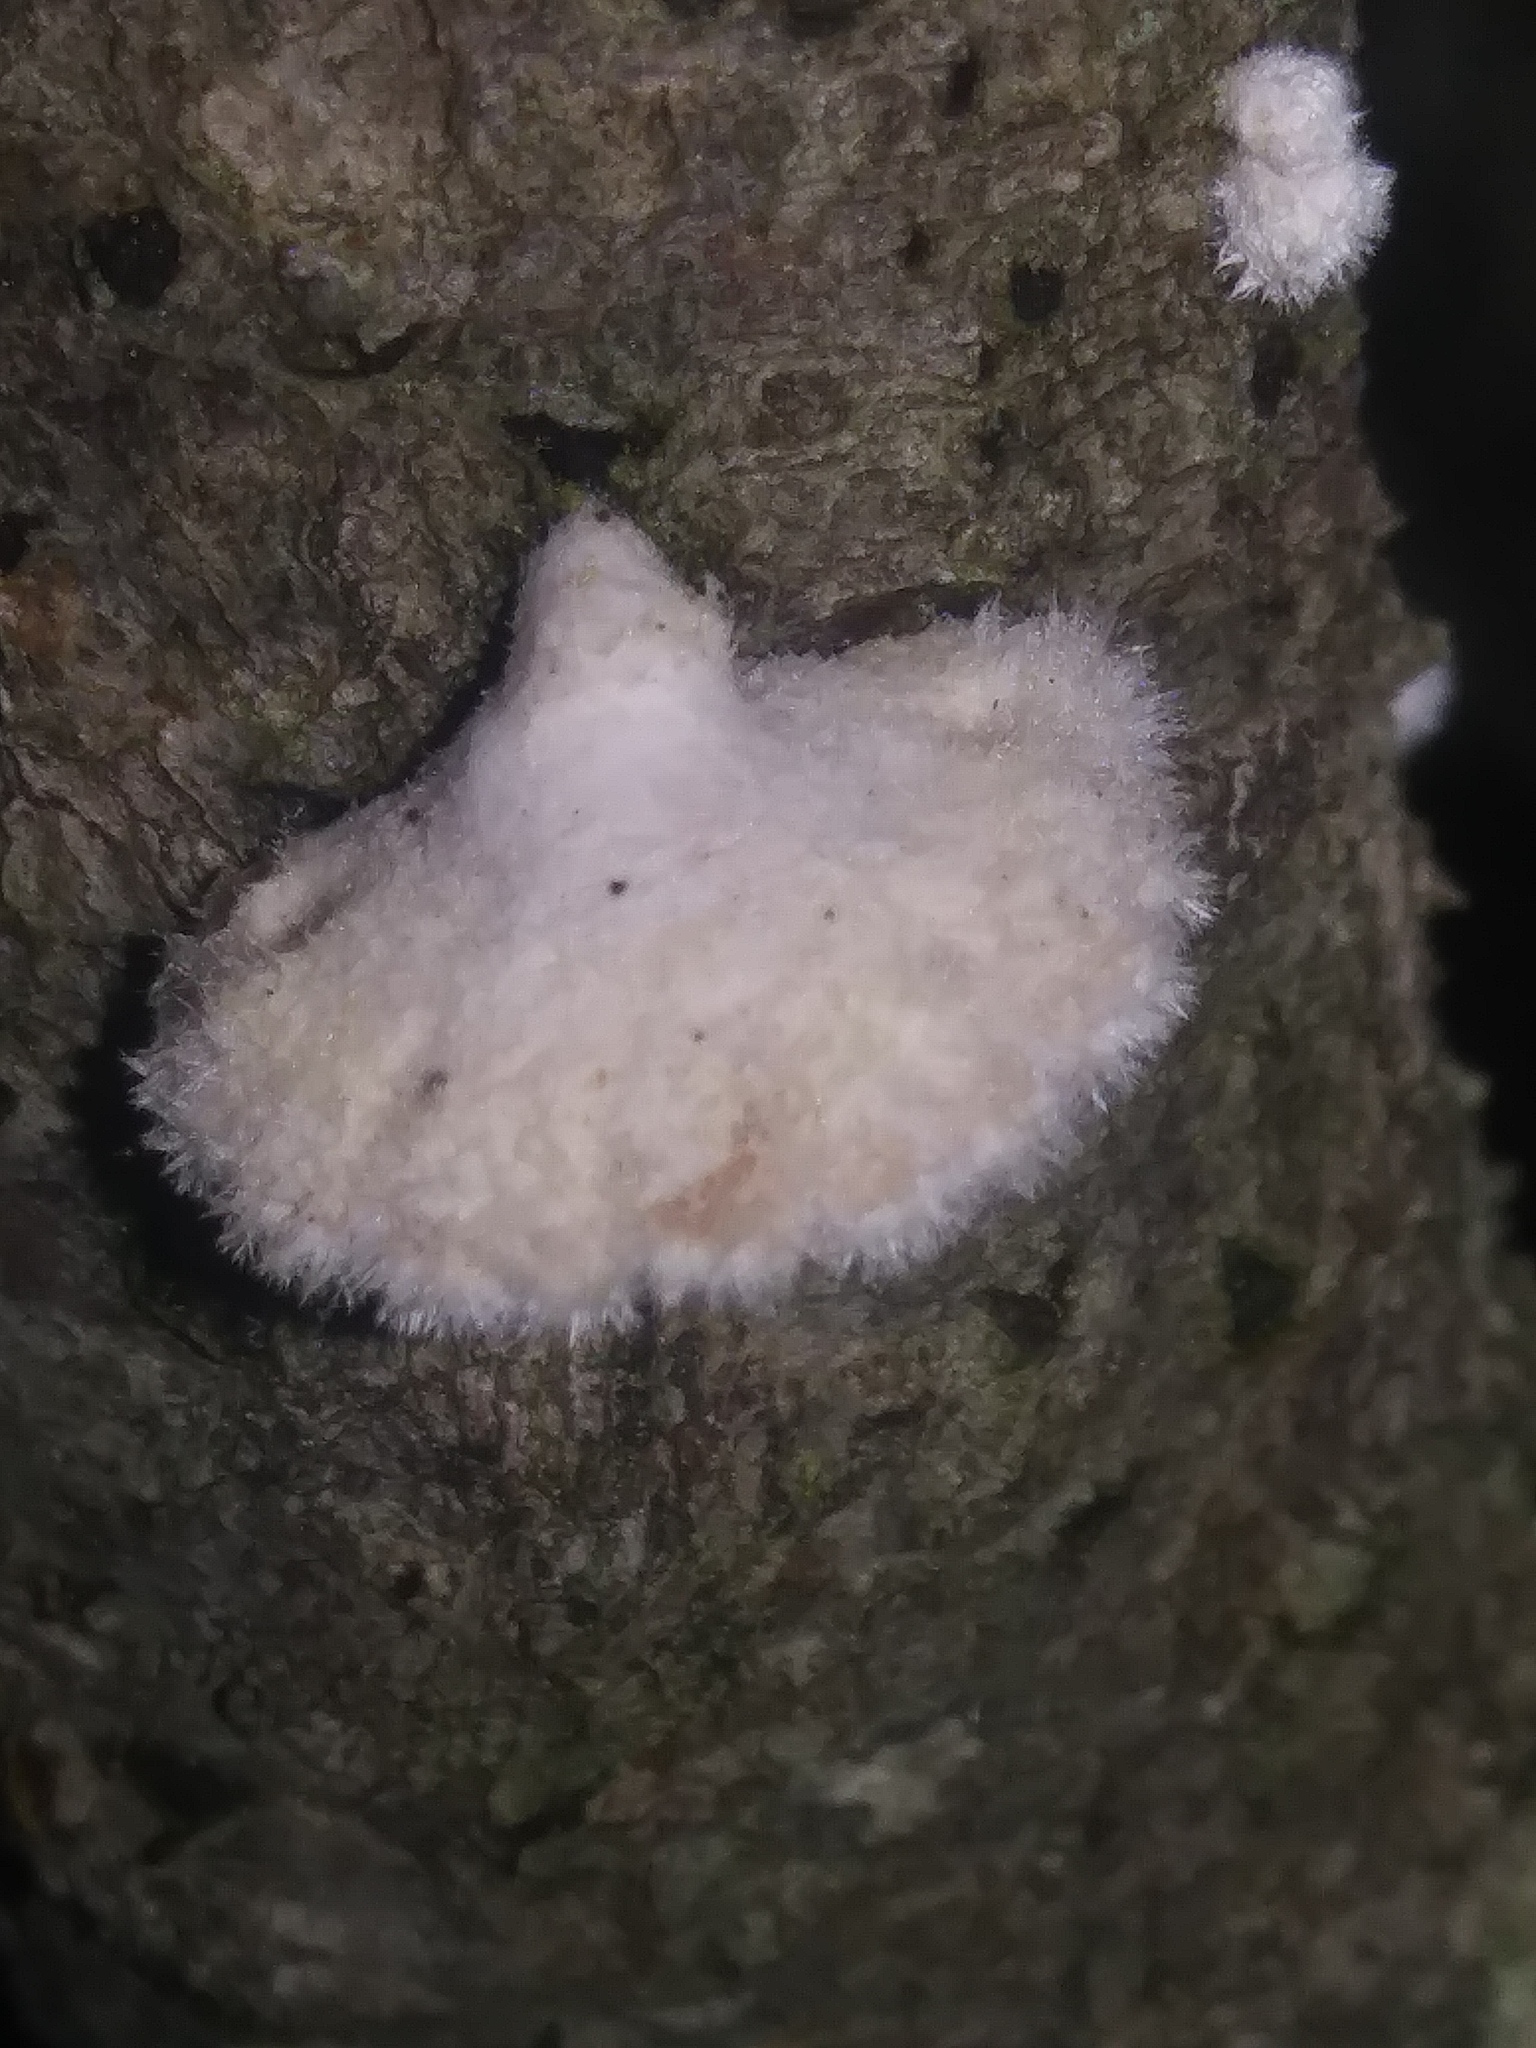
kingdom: Fungi
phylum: Basidiomycota
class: Agaricomycetes
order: Agaricales
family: Schizophyllaceae
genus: Schizophyllum
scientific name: Schizophyllum commune
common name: Common porecrust
